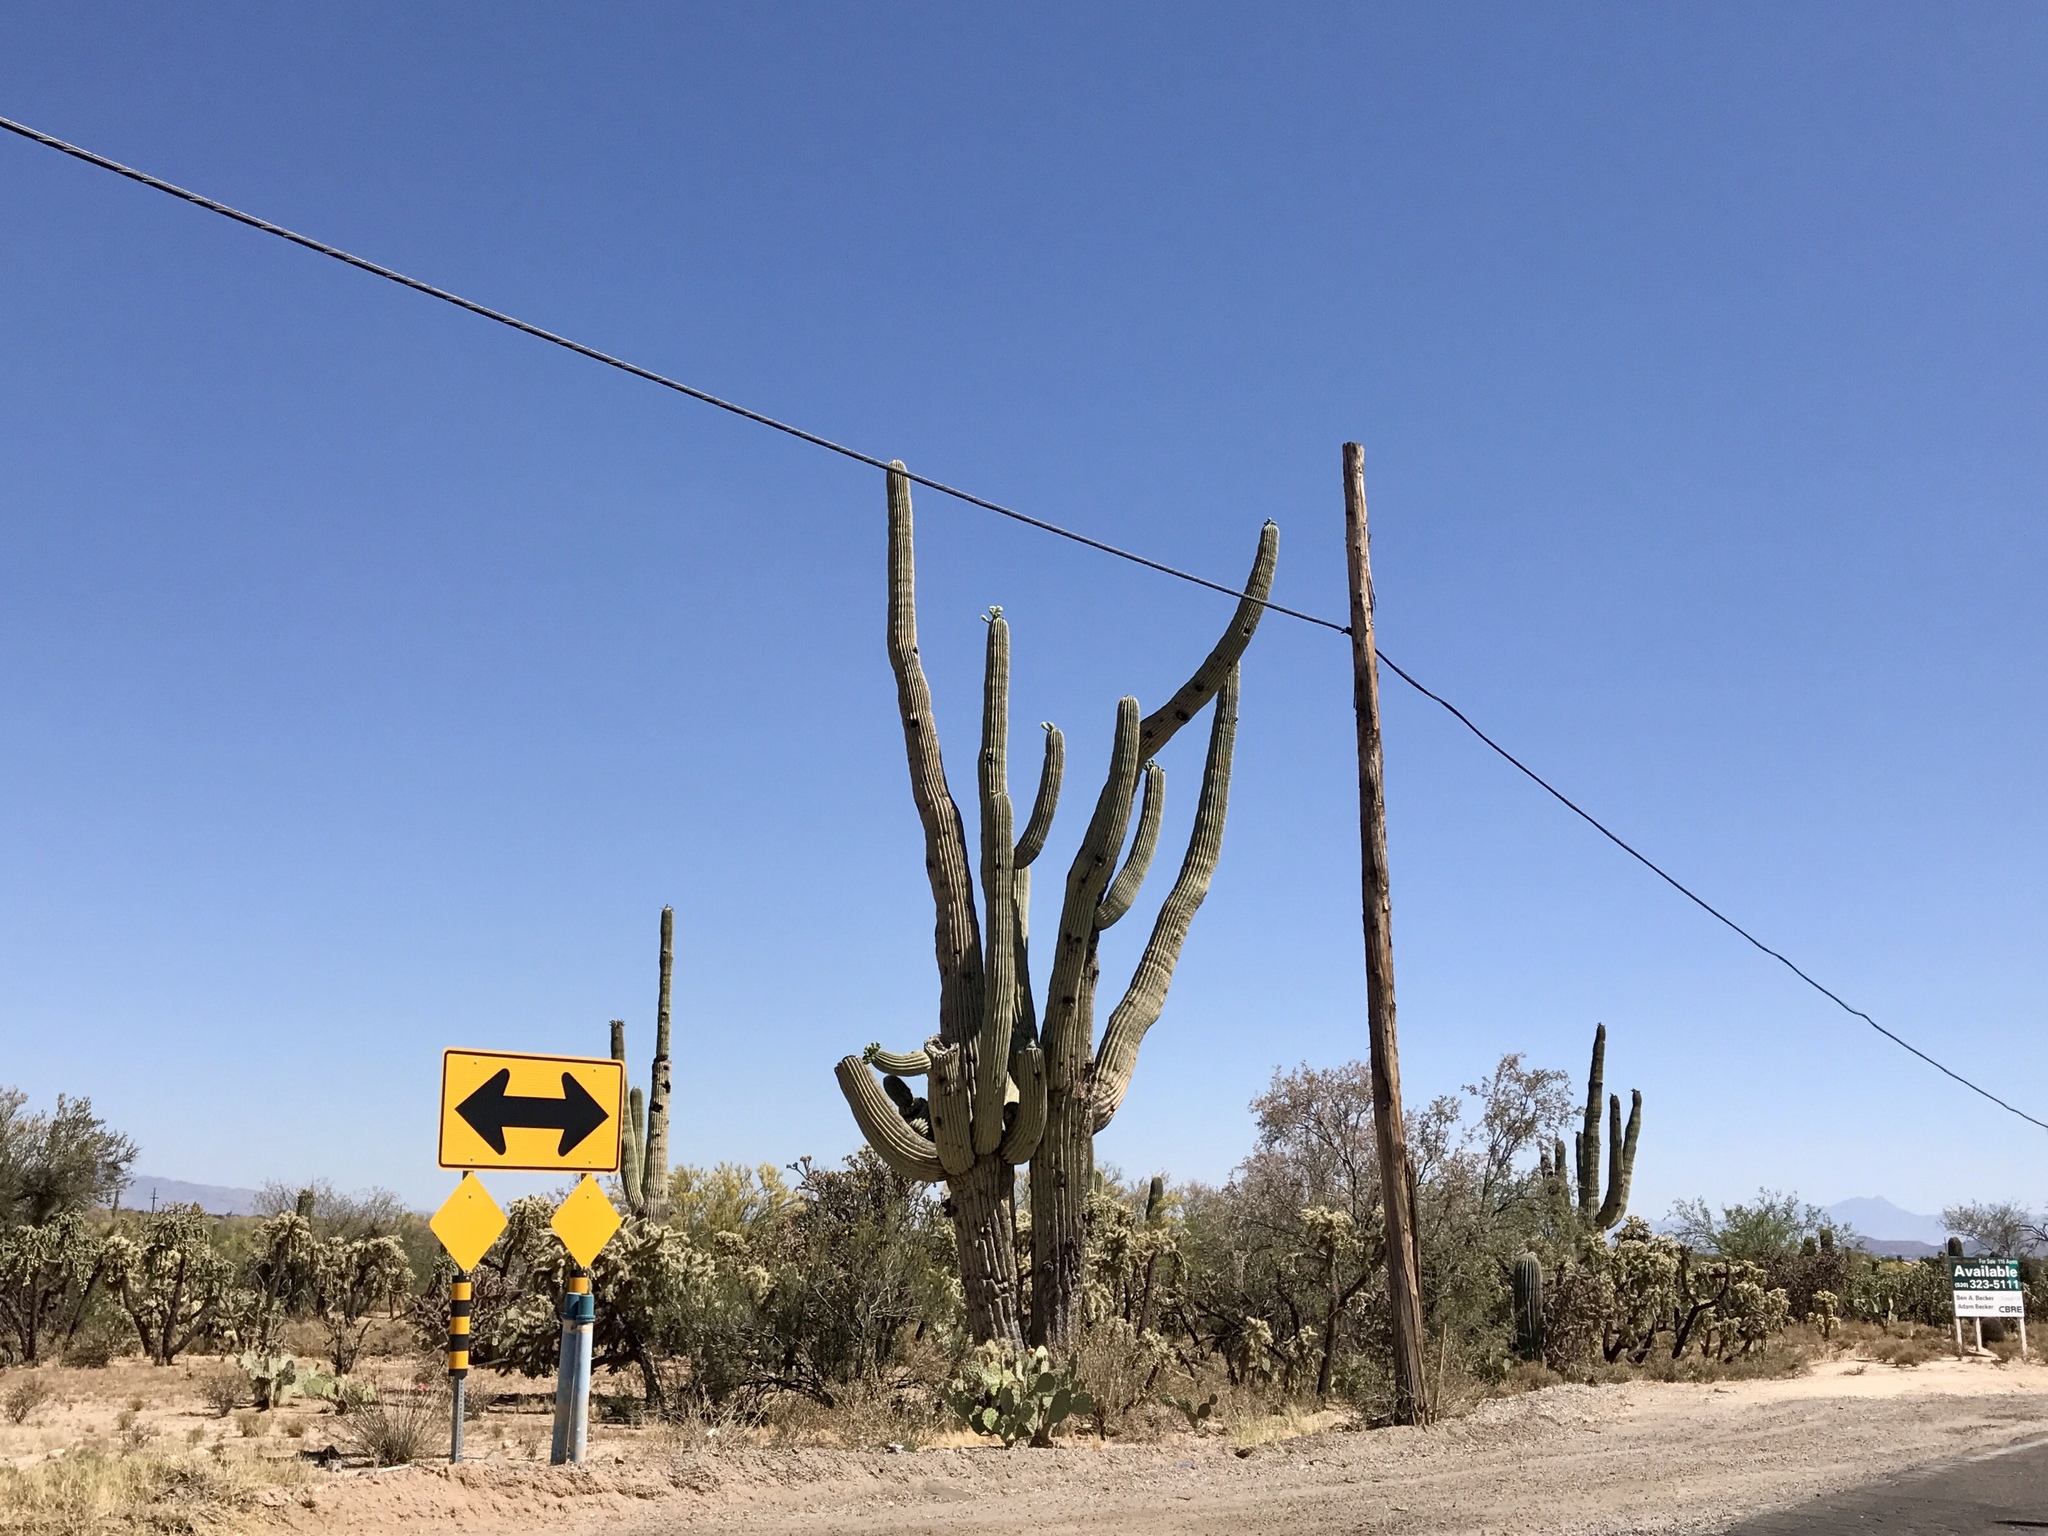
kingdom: Plantae
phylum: Tracheophyta
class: Magnoliopsida
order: Caryophyllales
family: Cactaceae
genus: Carnegiea
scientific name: Carnegiea gigantea
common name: Saguaro
